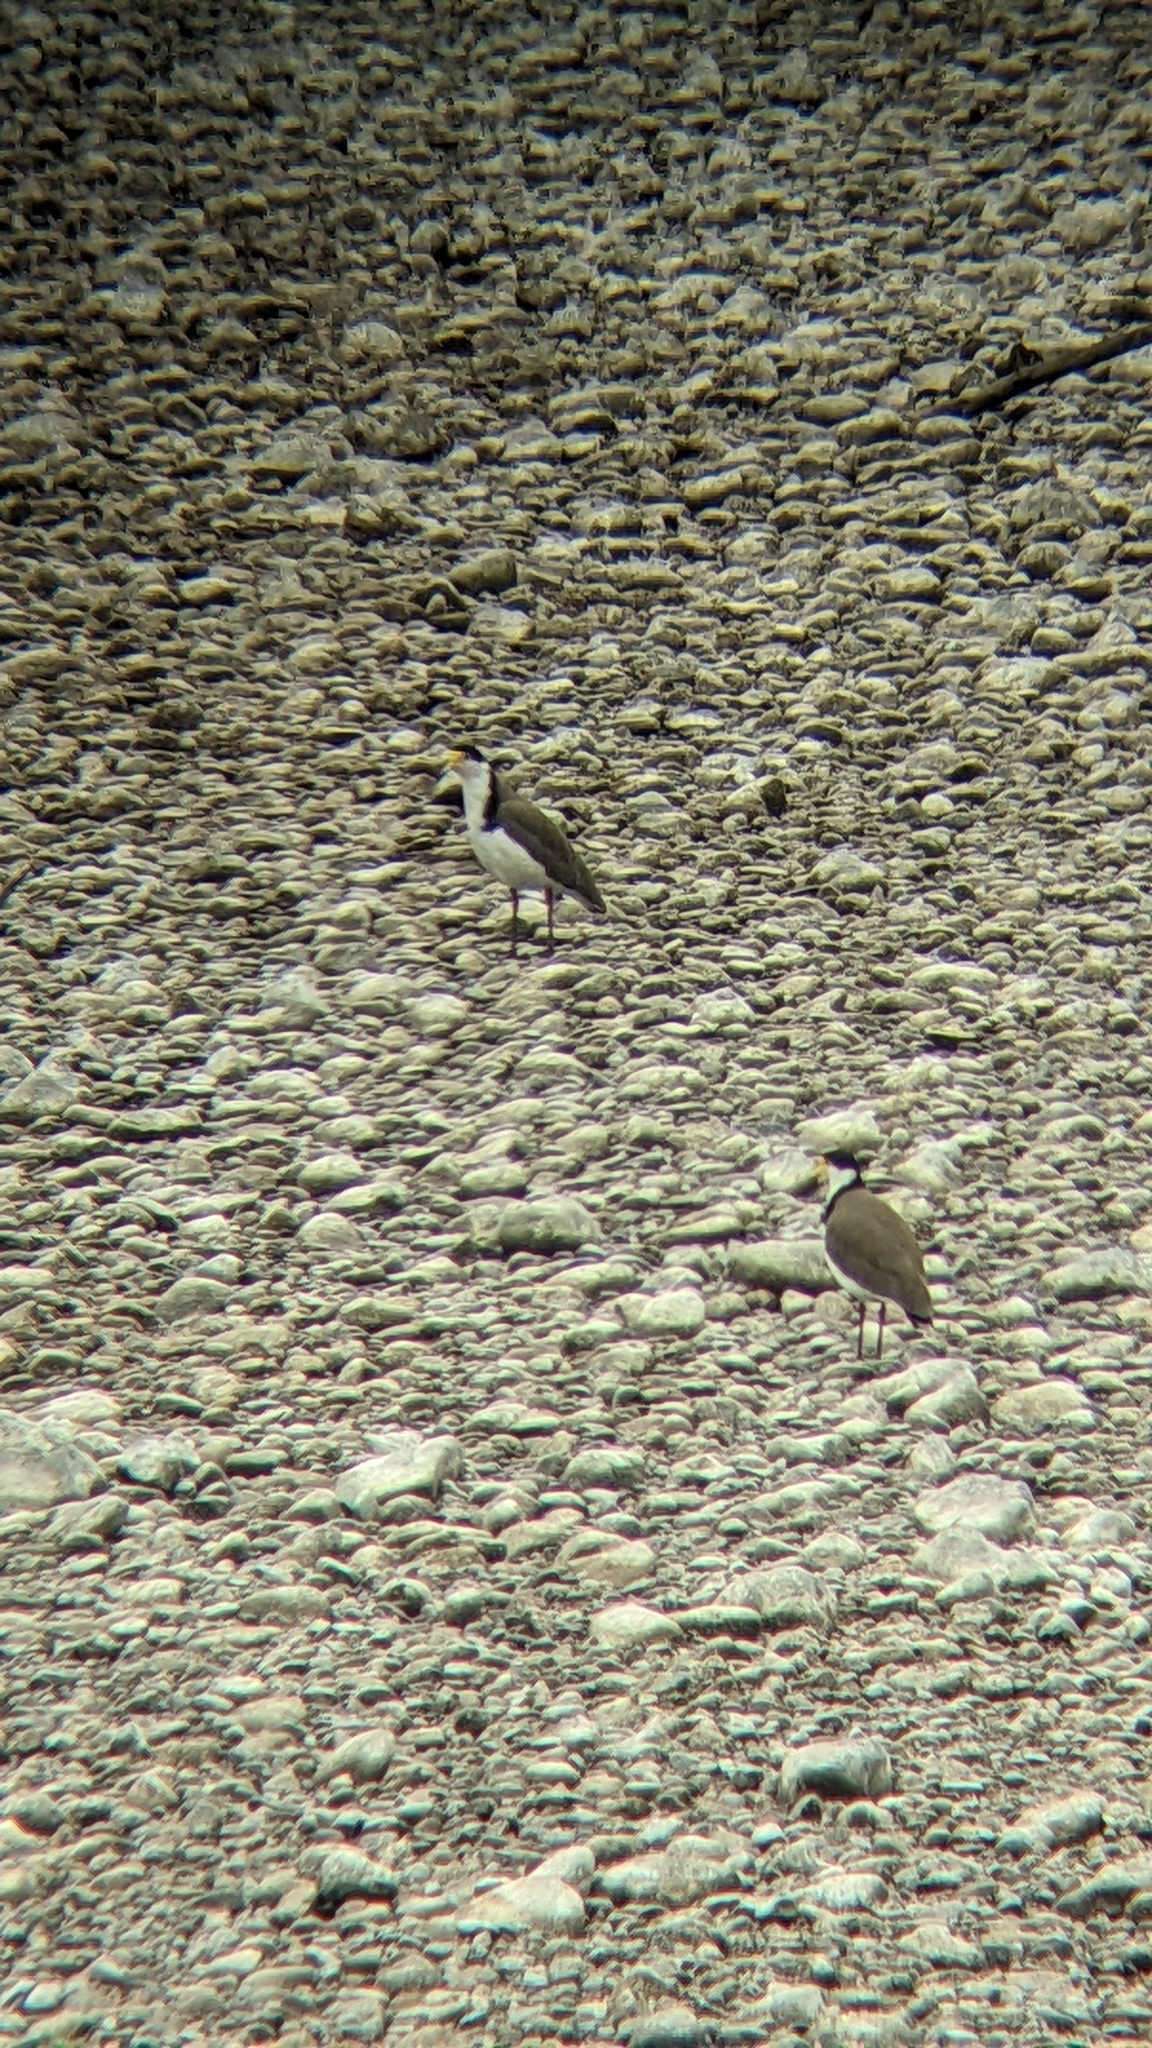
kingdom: Animalia
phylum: Chordata
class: Aves
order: Charadriiformes
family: Charadriidae
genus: Vanellus
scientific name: Vanellus miles
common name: Masked lapwing
